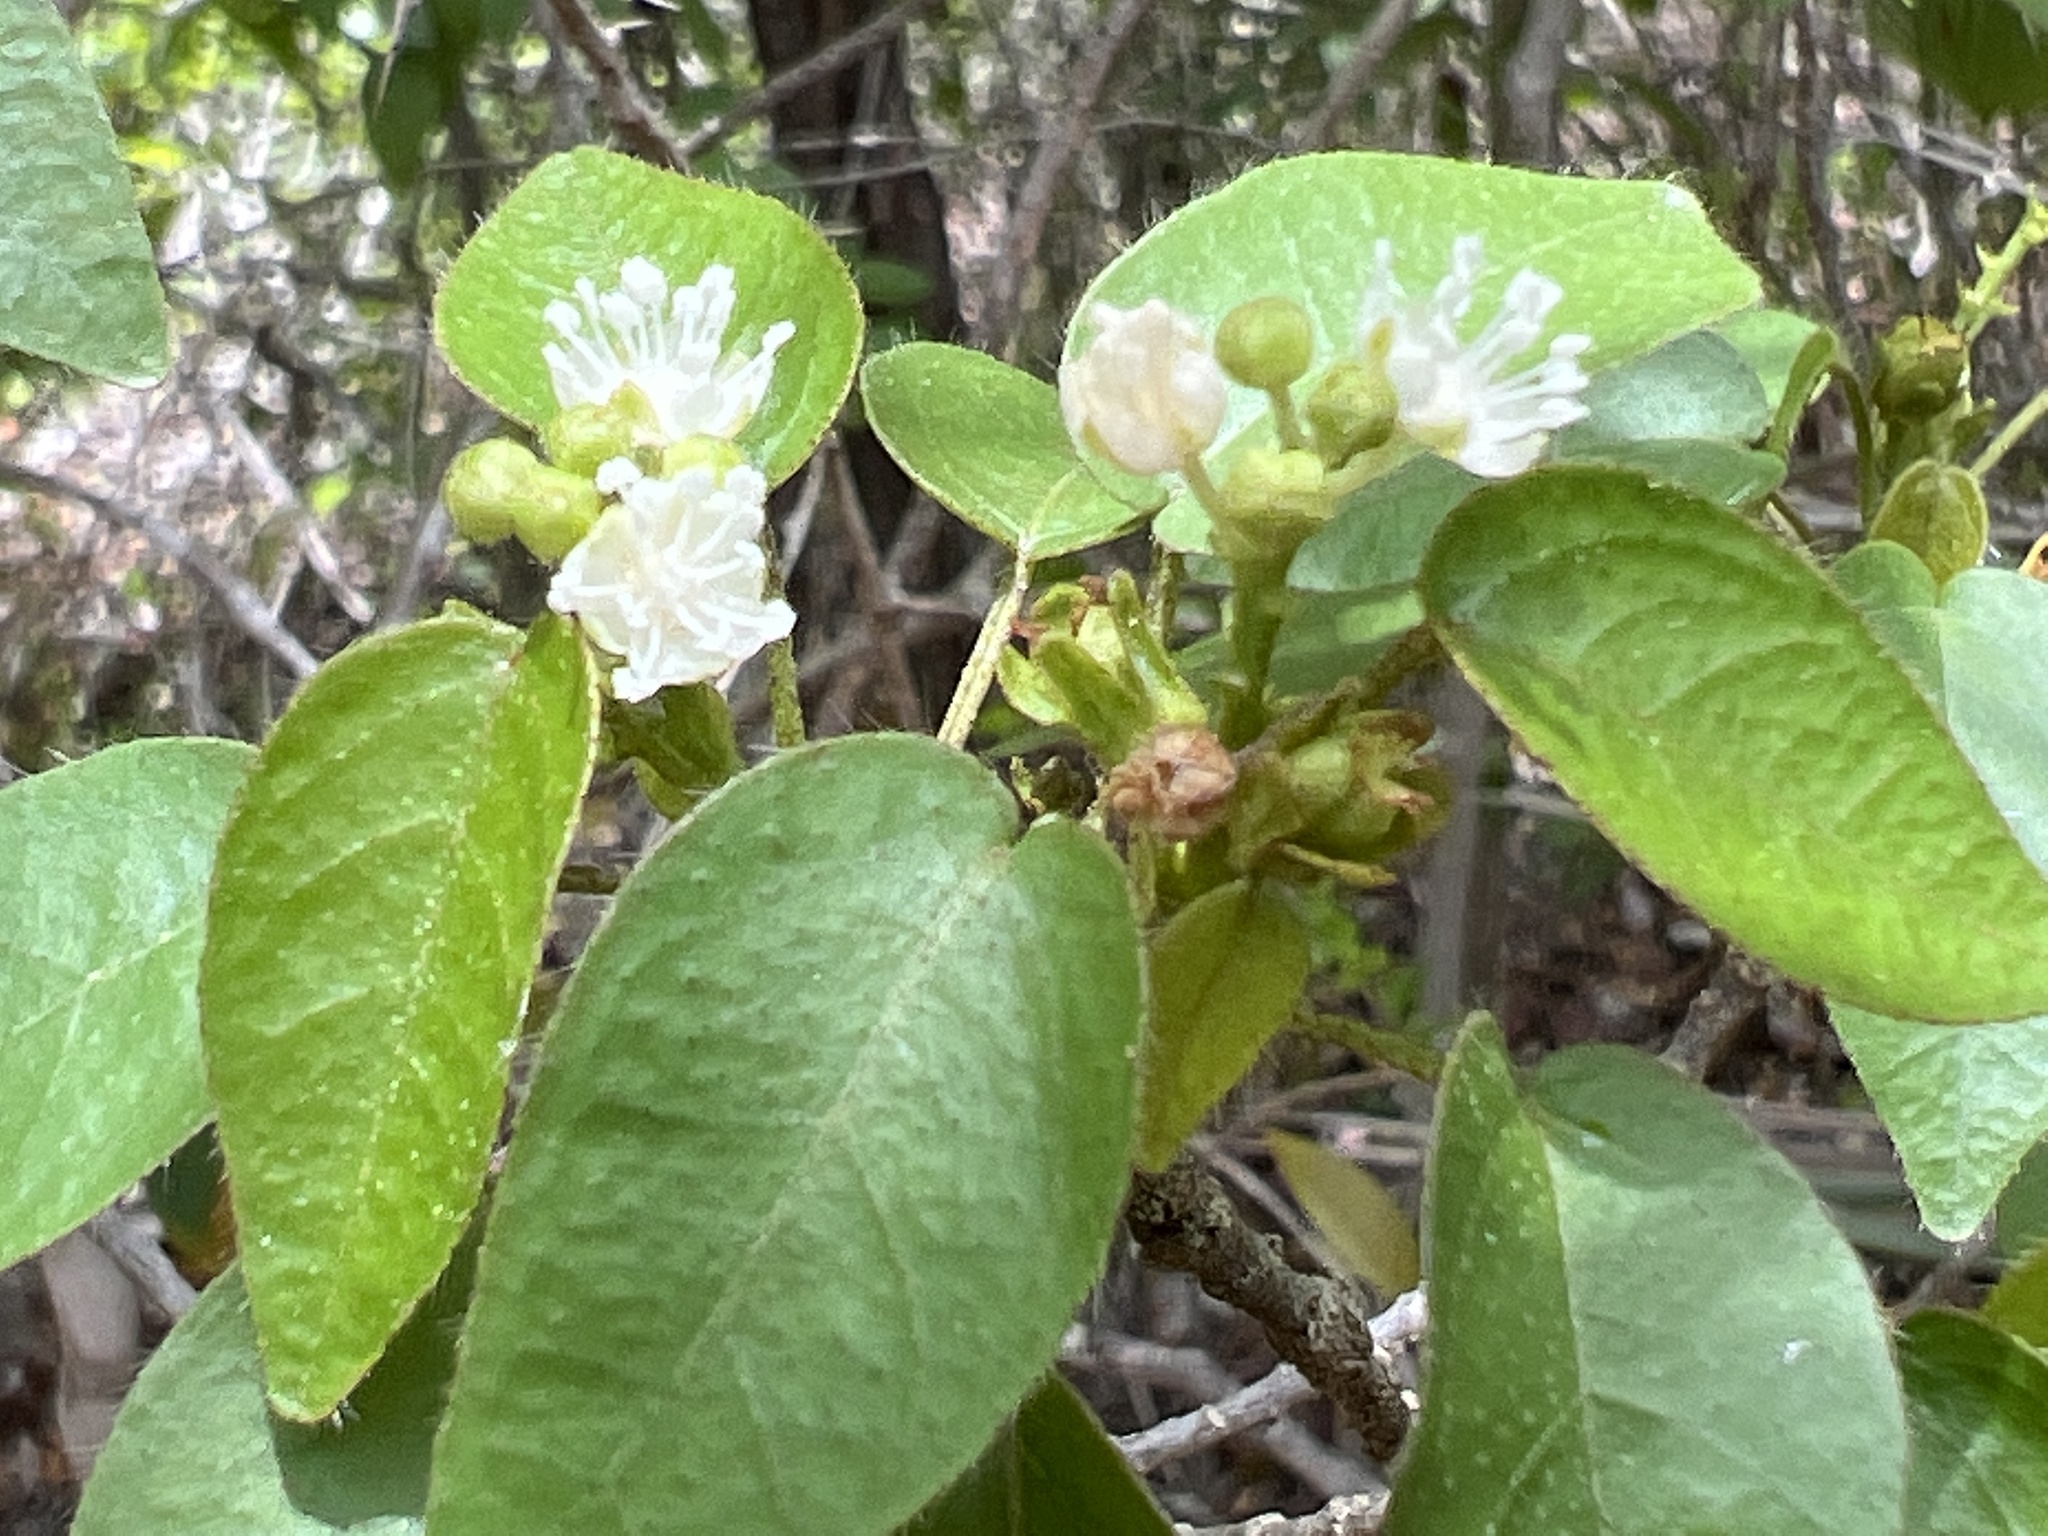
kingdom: Plantae
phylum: Tracheophyta
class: Magnoliopsida
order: Malpighiales
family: Euphorbiaceae
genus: Croton
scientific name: Croton glabellus
